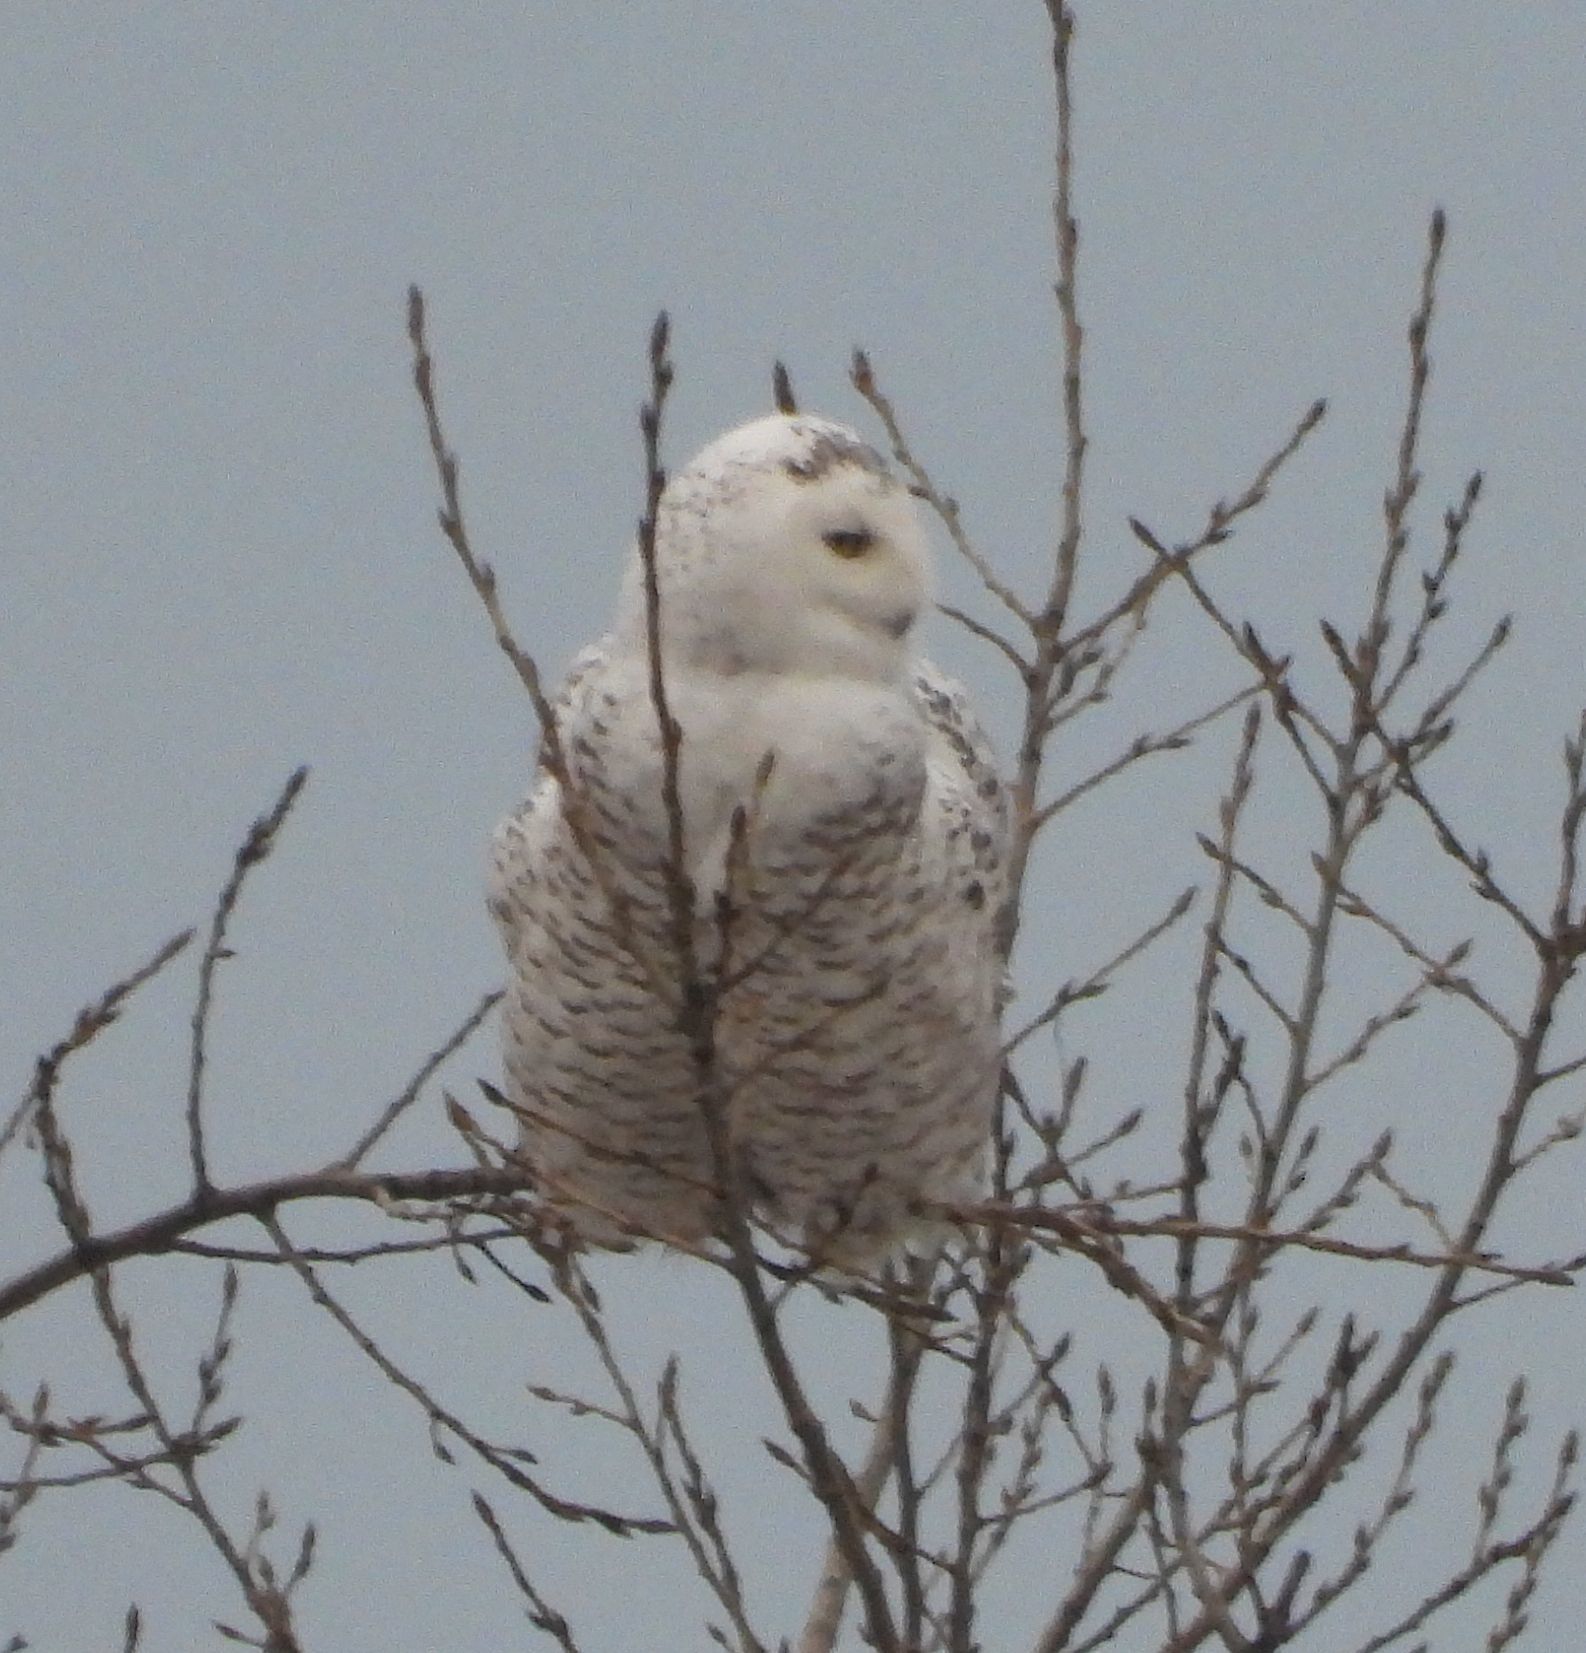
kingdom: Animalia
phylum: Chordata
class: Aves
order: Strigiformes
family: Strigidae
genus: Bubo
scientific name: Bubo scandiacus
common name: Snowy owl
